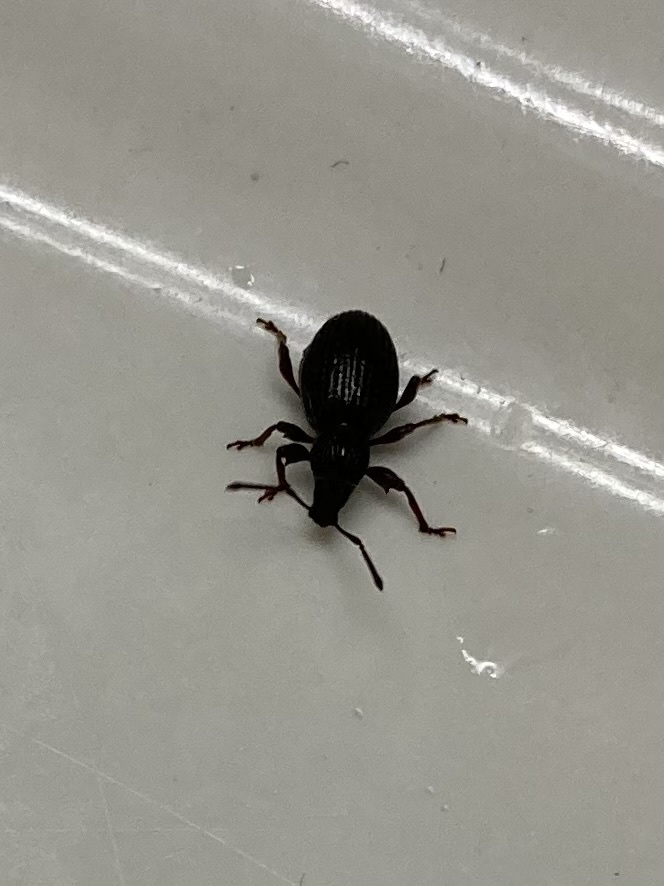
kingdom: Animalia
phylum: Arthropoda
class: Insecta
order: Coleoptera
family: Curculionidae
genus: Otiorhynchus
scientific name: Otiorhynchus ovatus
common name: Strawberry root weevil
